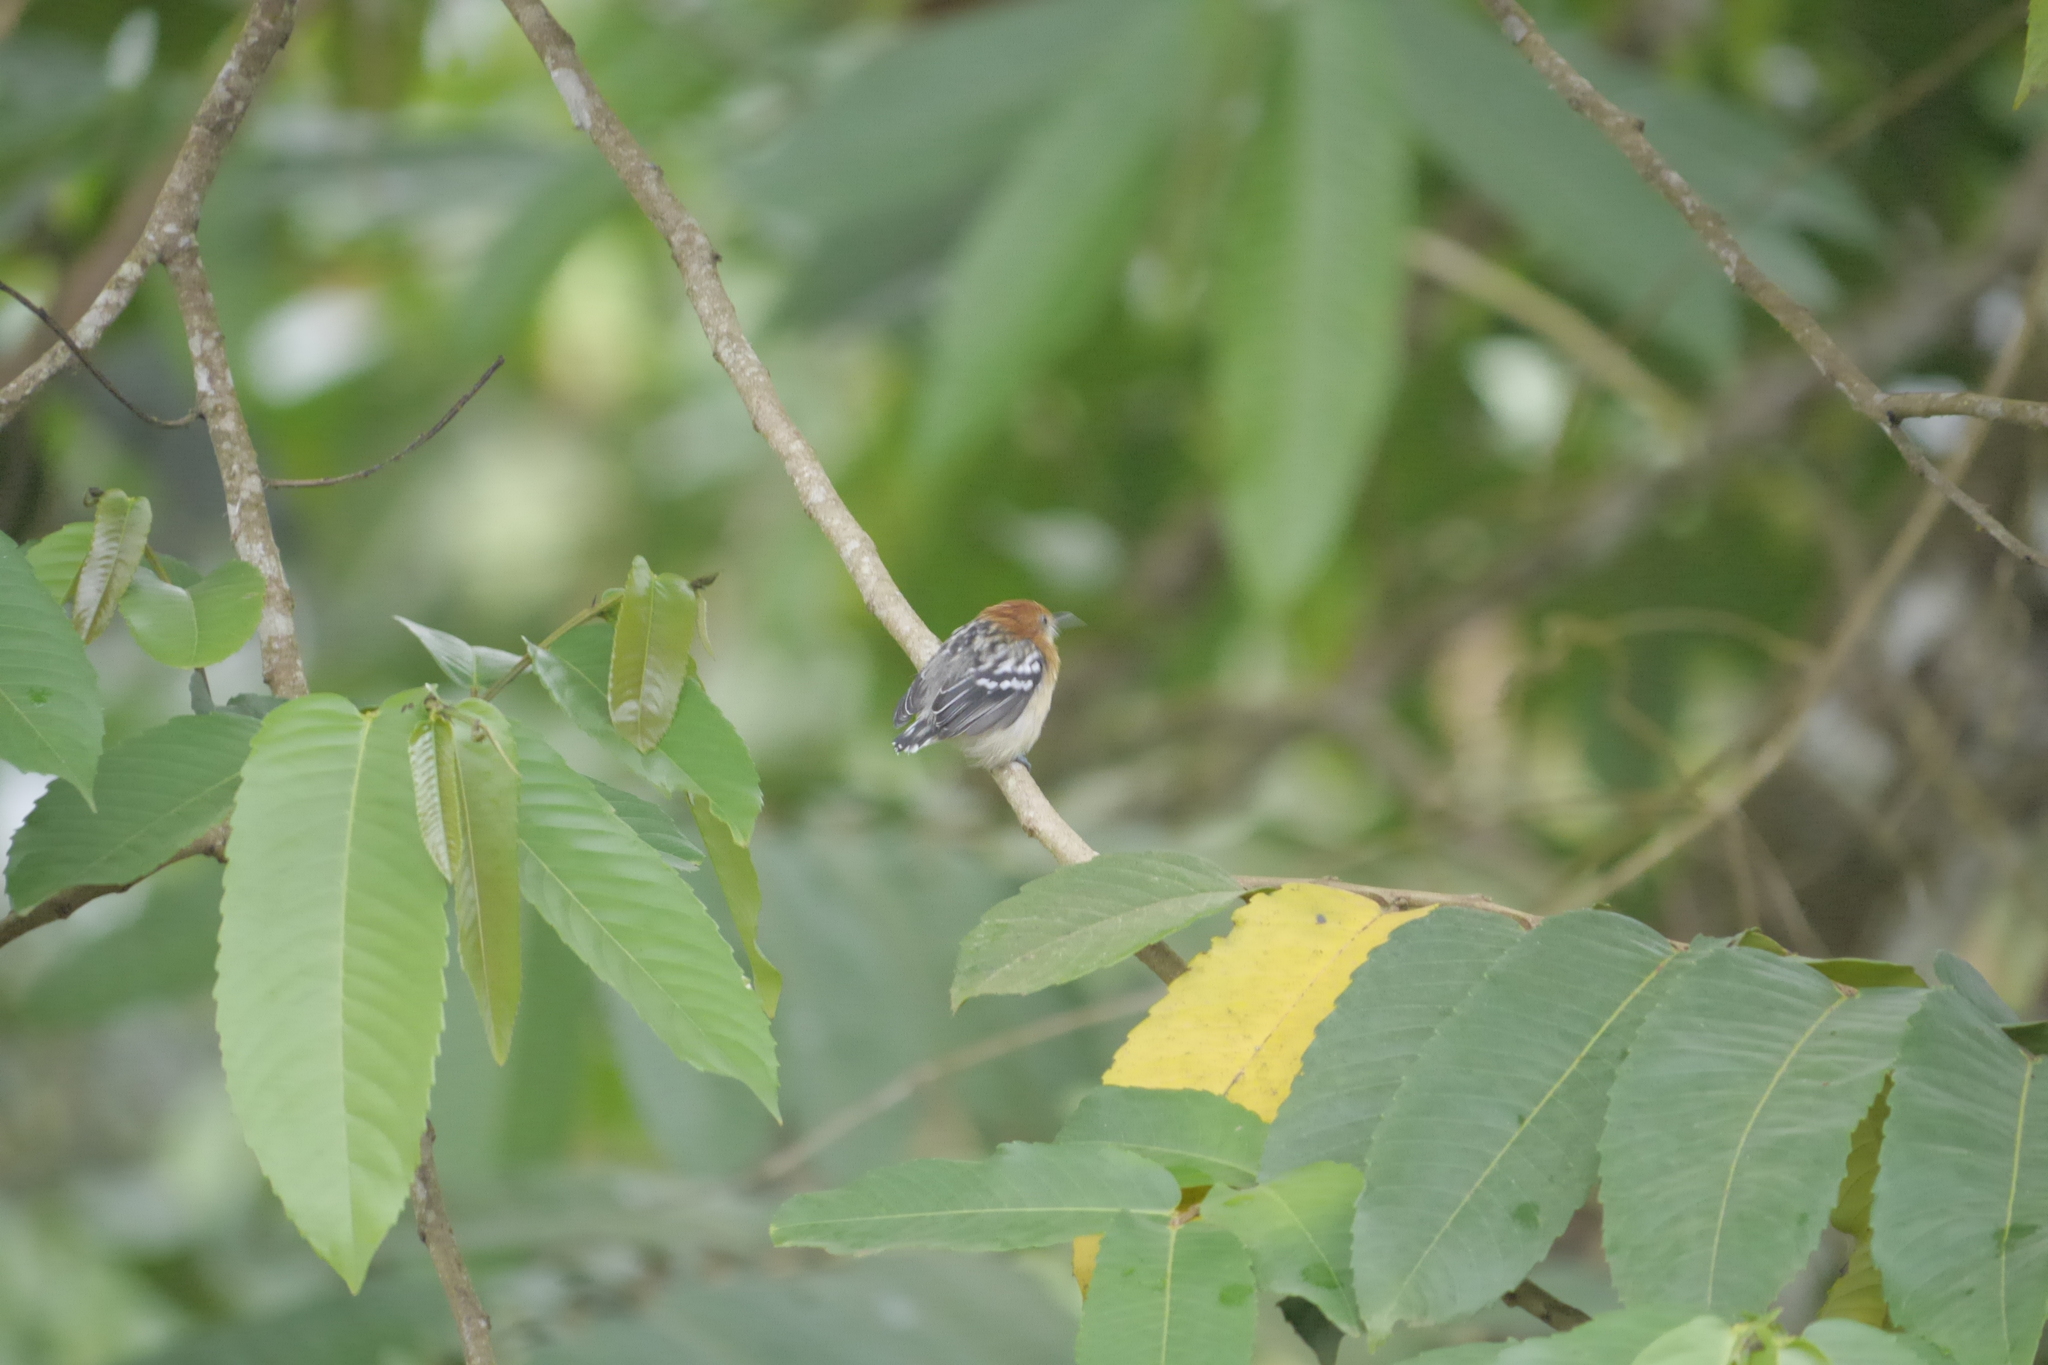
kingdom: Animalia
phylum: Chordata
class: Aves
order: Passeriformes
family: Thamnophilidae
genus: Myrmotherula
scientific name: Myrmotherula pacifica
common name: Pacific antwren
